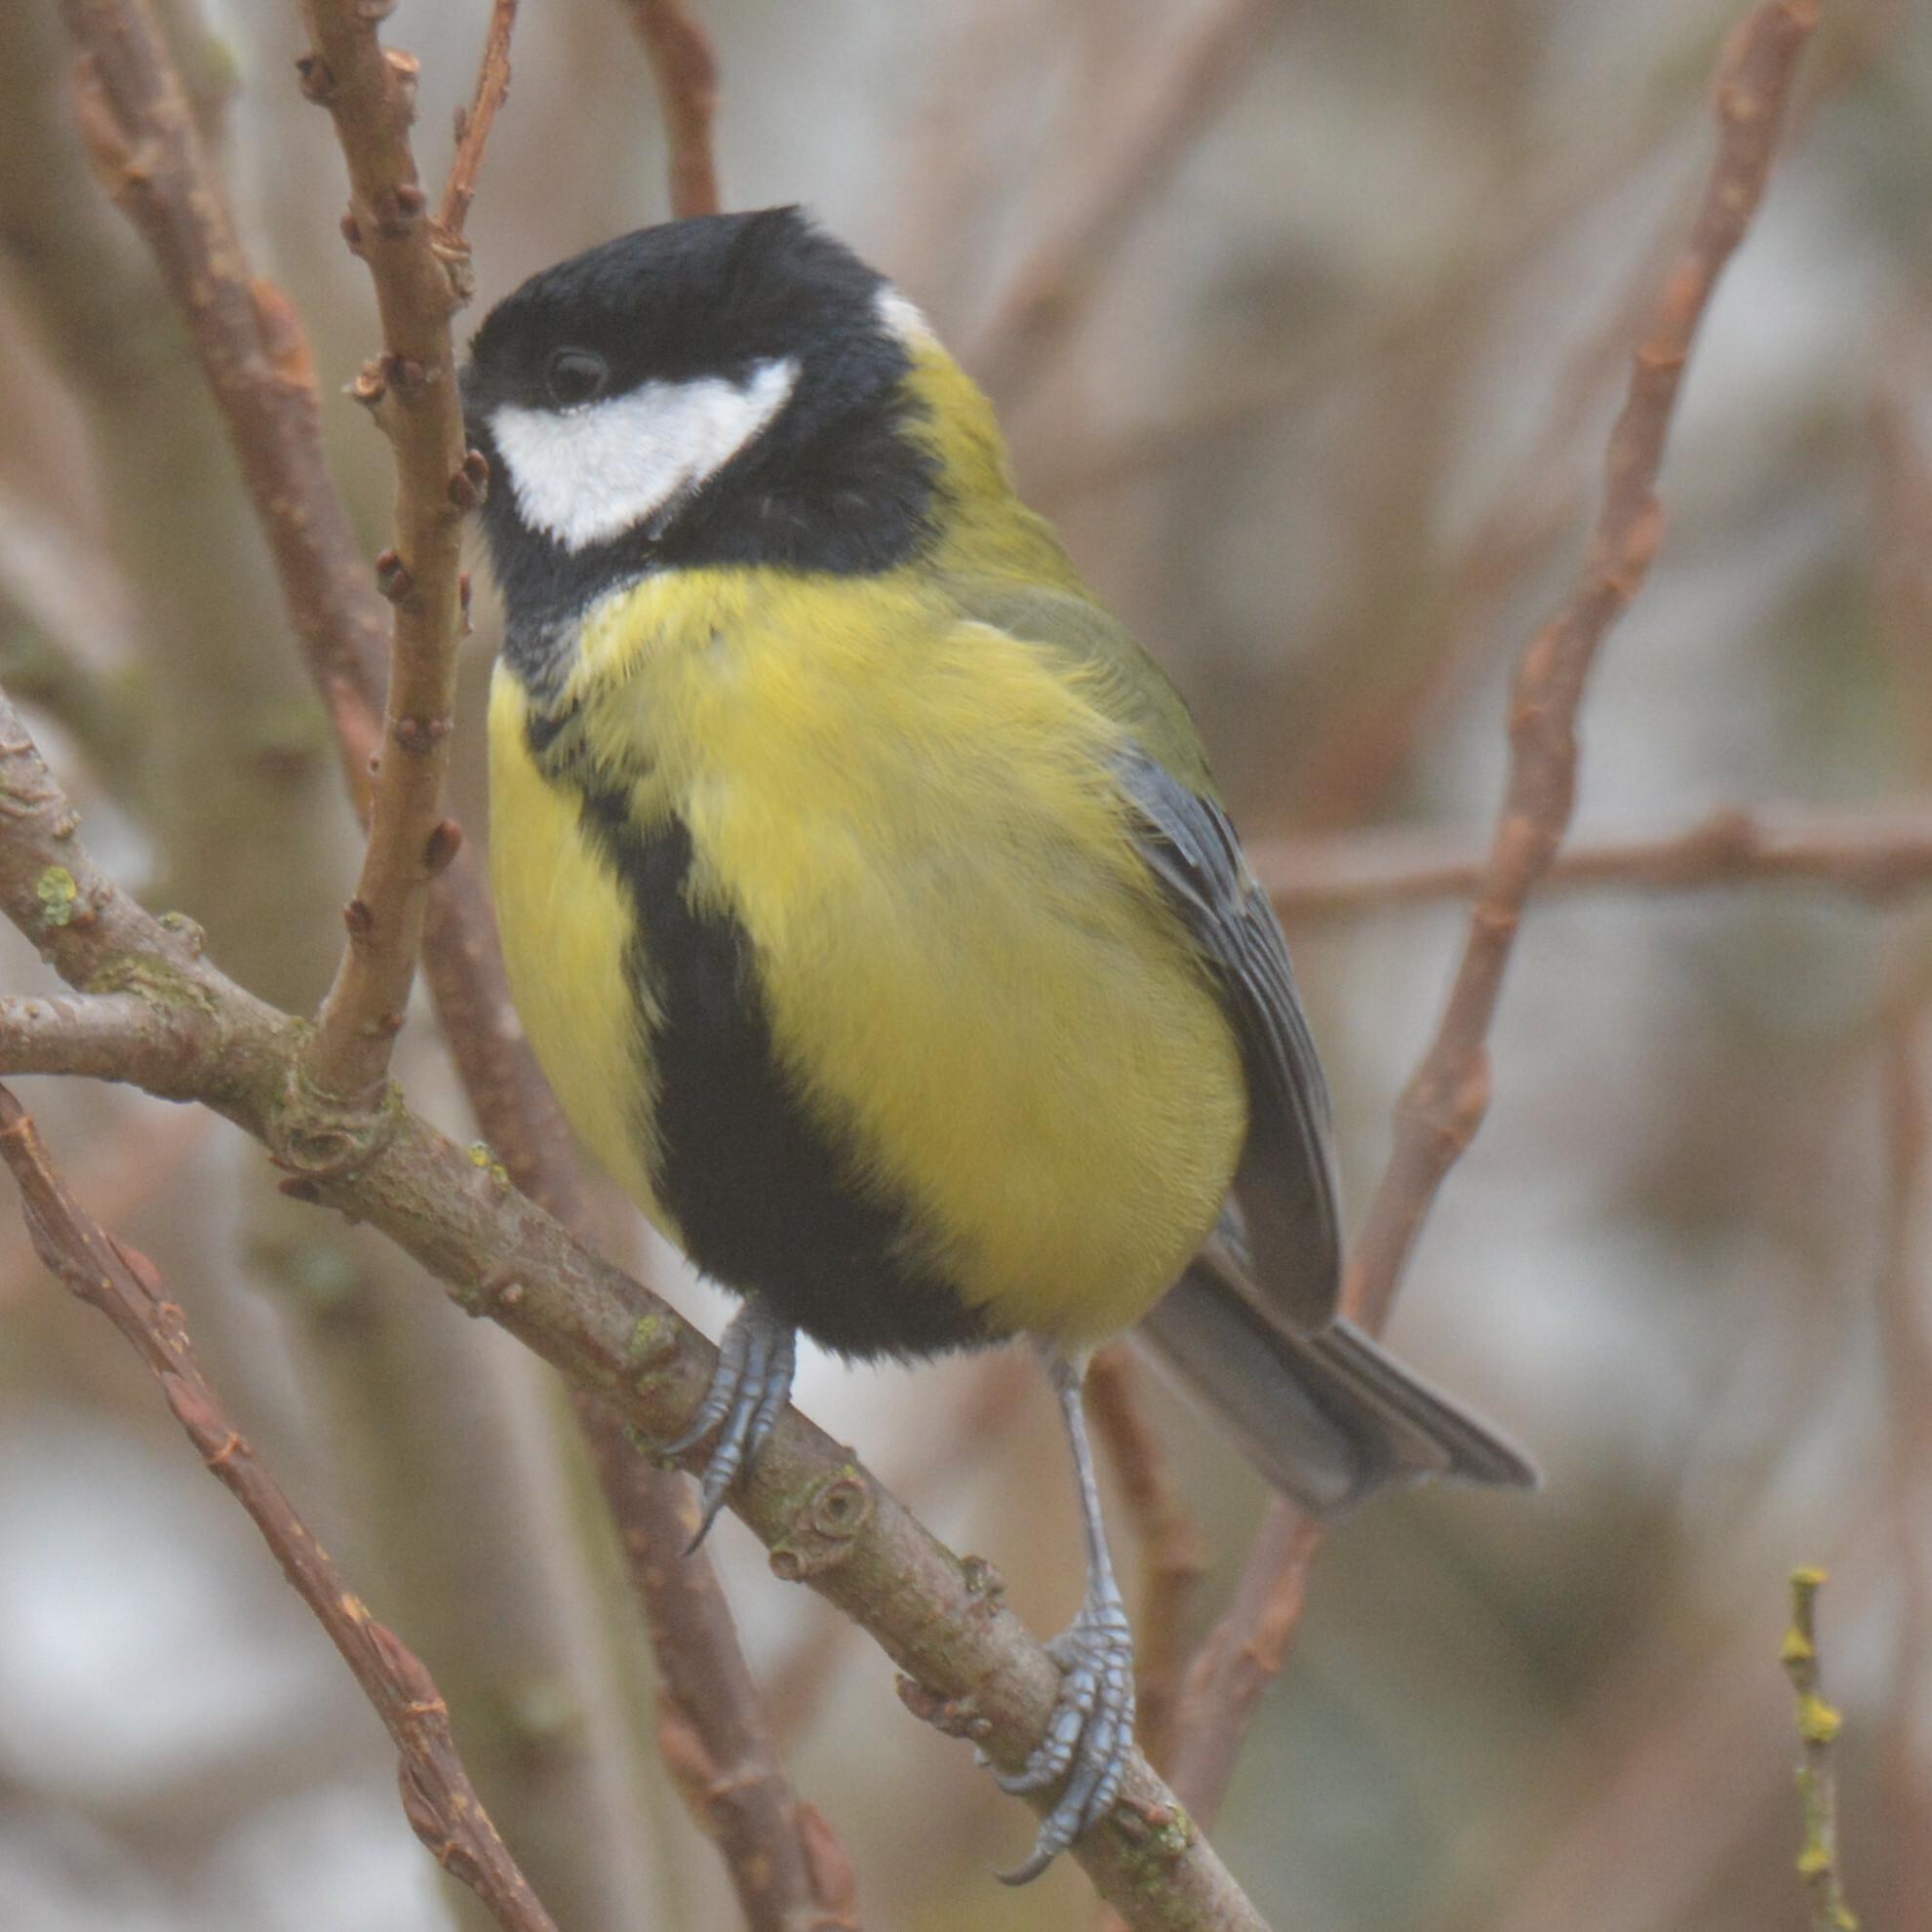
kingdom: Animalia
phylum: Chordata
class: Aves
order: Passeriformes
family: Paridae
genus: Parus
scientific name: Parus major
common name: Great tit
